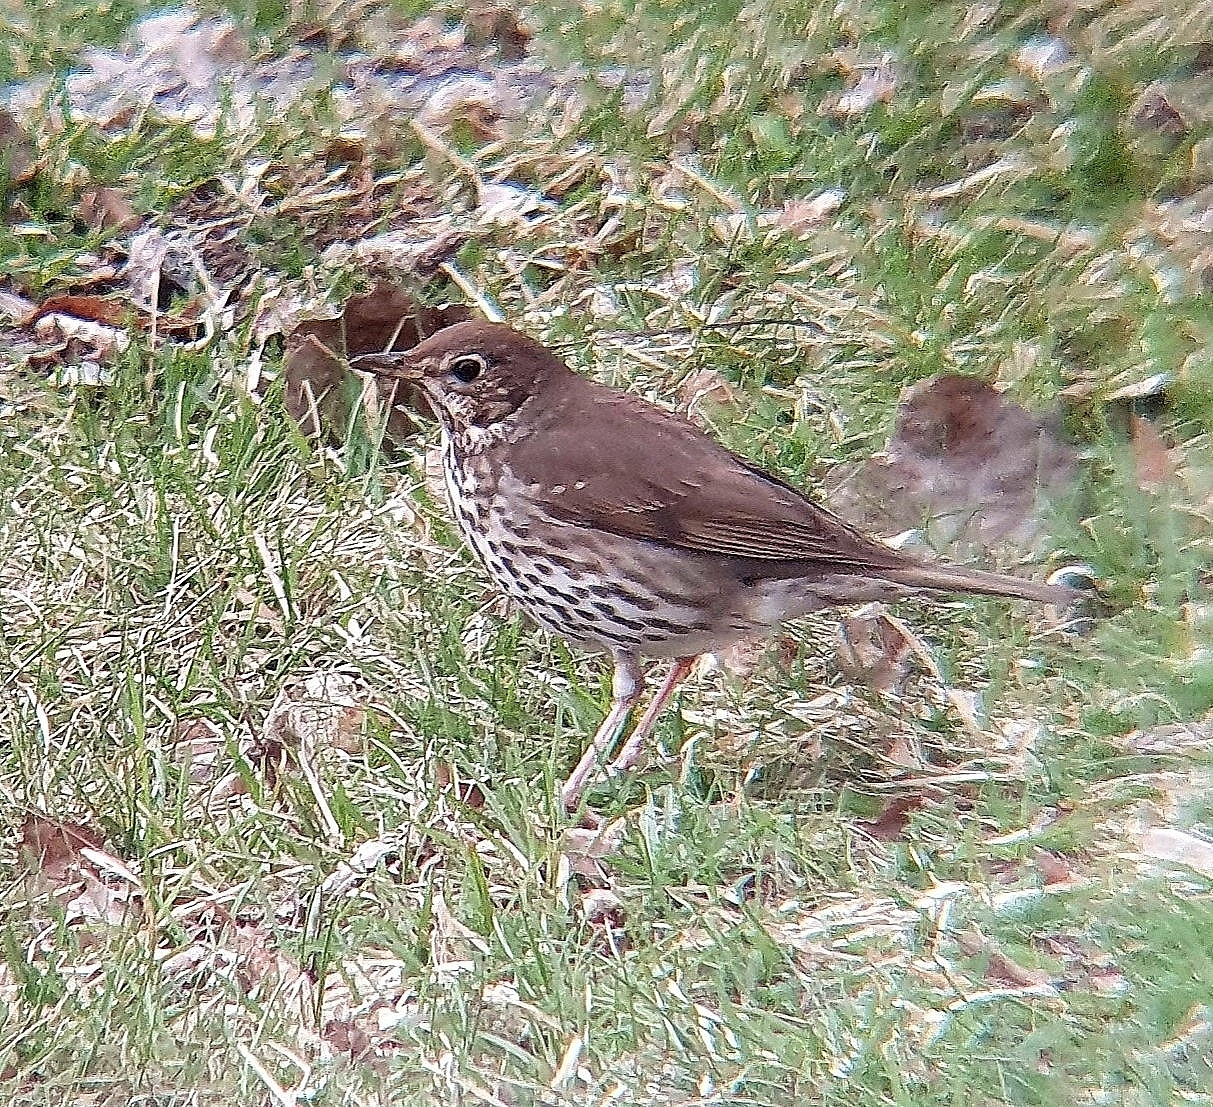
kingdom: Animalia
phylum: Chordata
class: Aves
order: Passeriformes
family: Turdidae
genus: Turdus
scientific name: Turdus philomelos
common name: Song thrush
